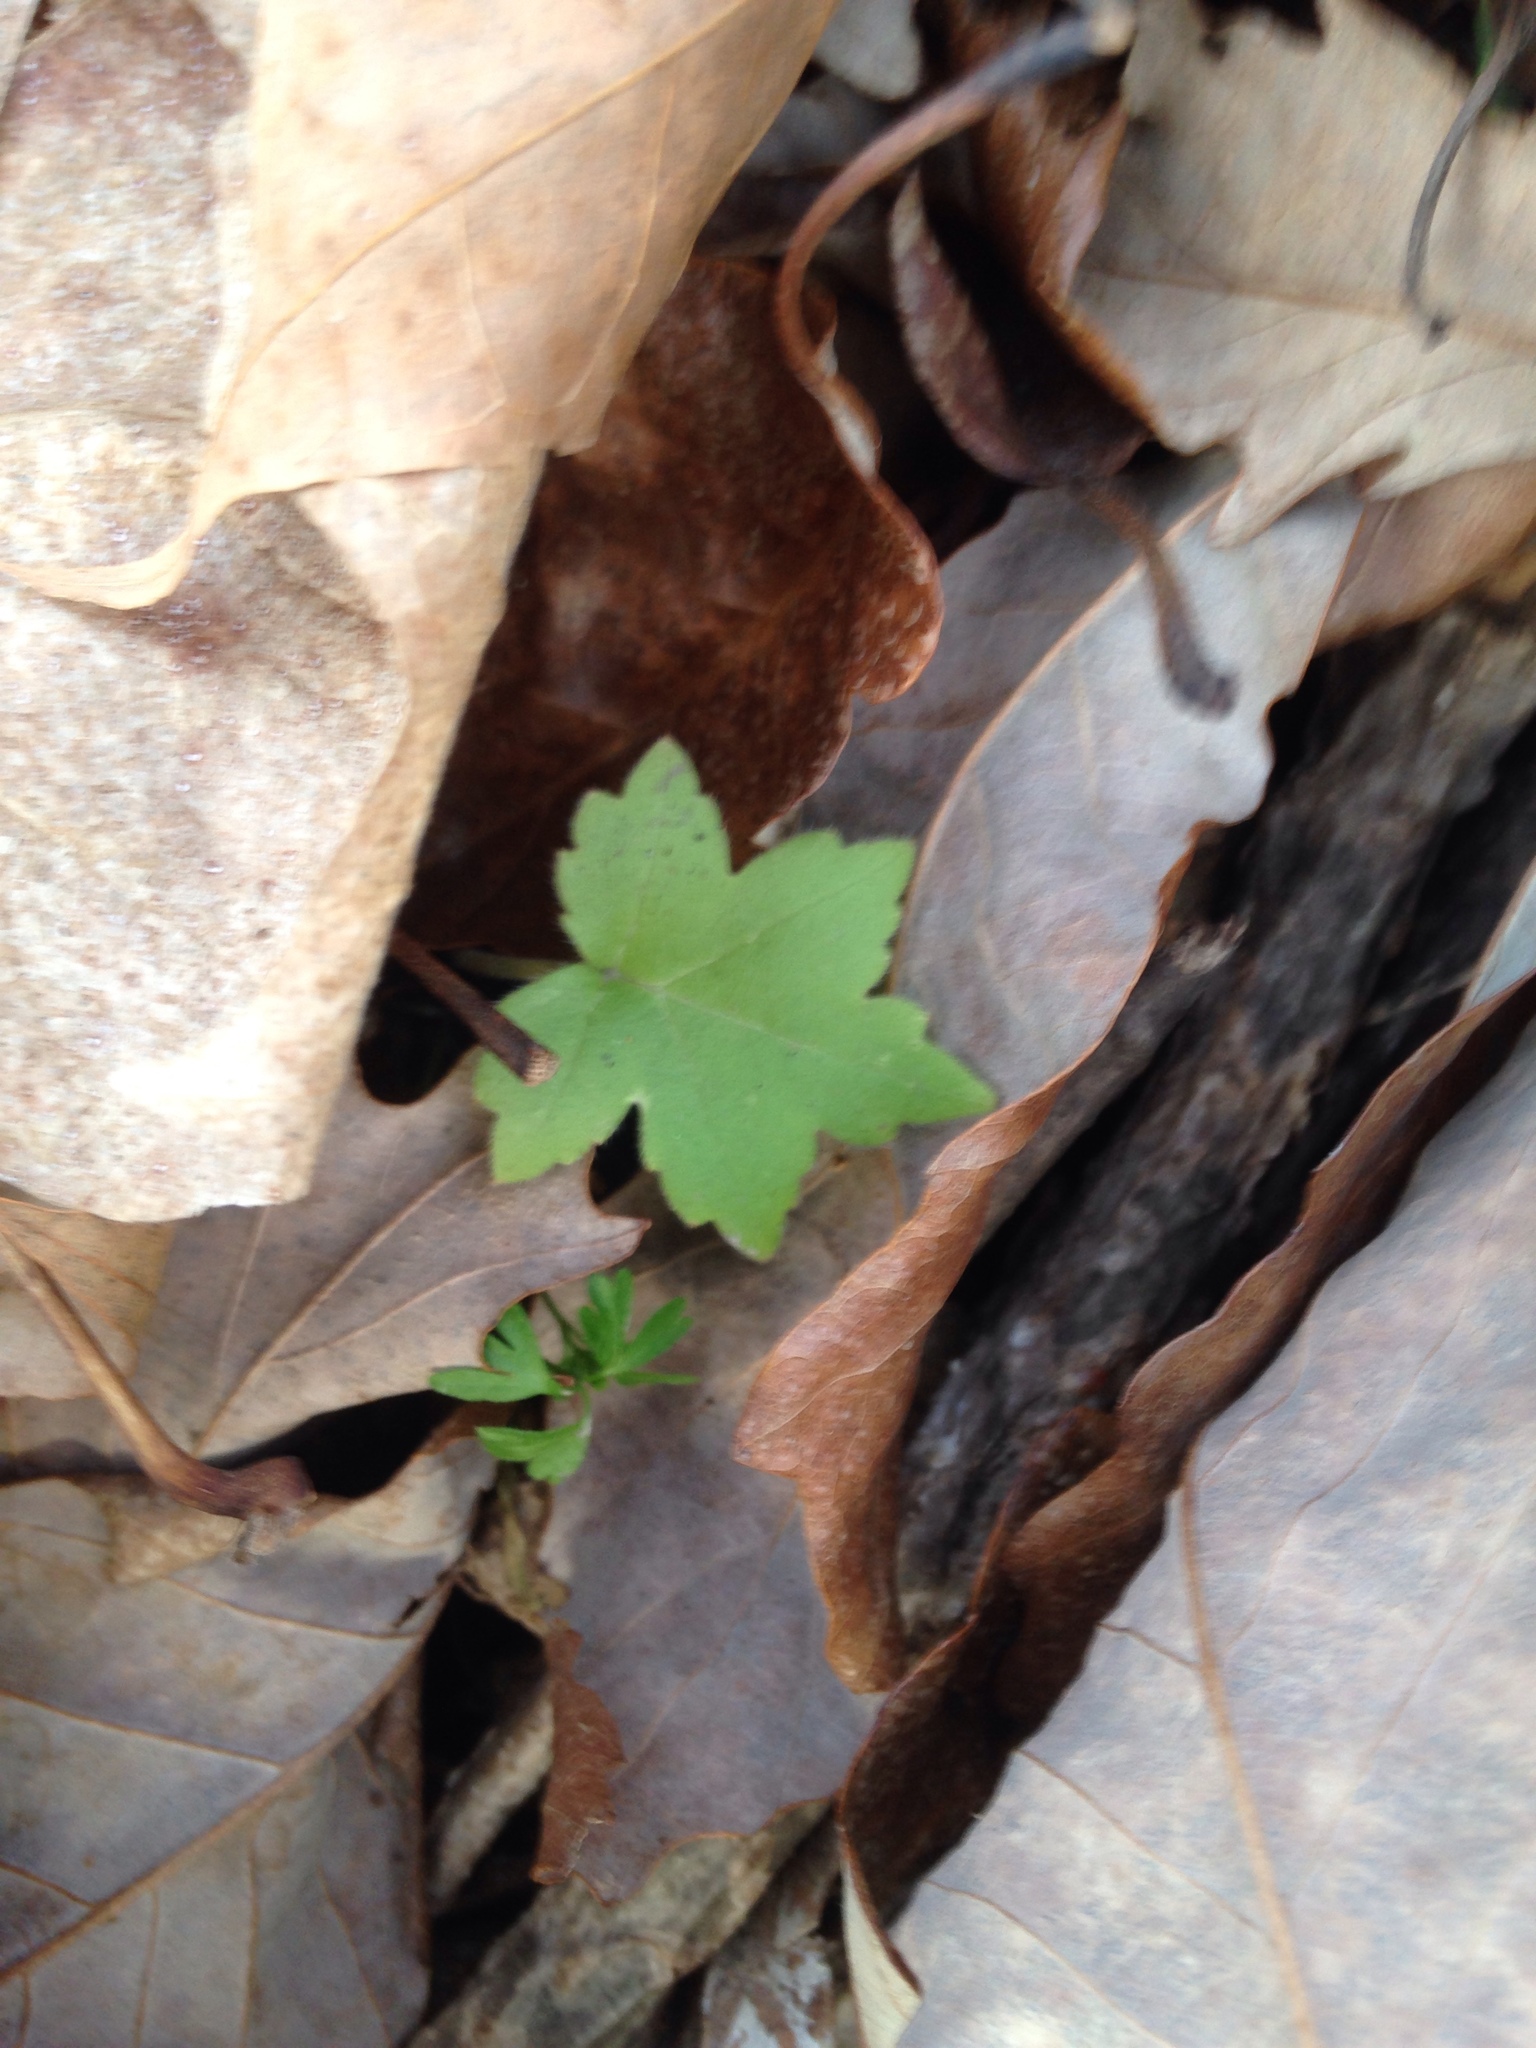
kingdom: Plantae
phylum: Tracheophyta
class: Magnoliopsida
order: Boraginales
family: Hydrophyllaceae
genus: Hydrophyllum
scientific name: Hydrophyllum appendiculatum
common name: Appendaged waterleaf
